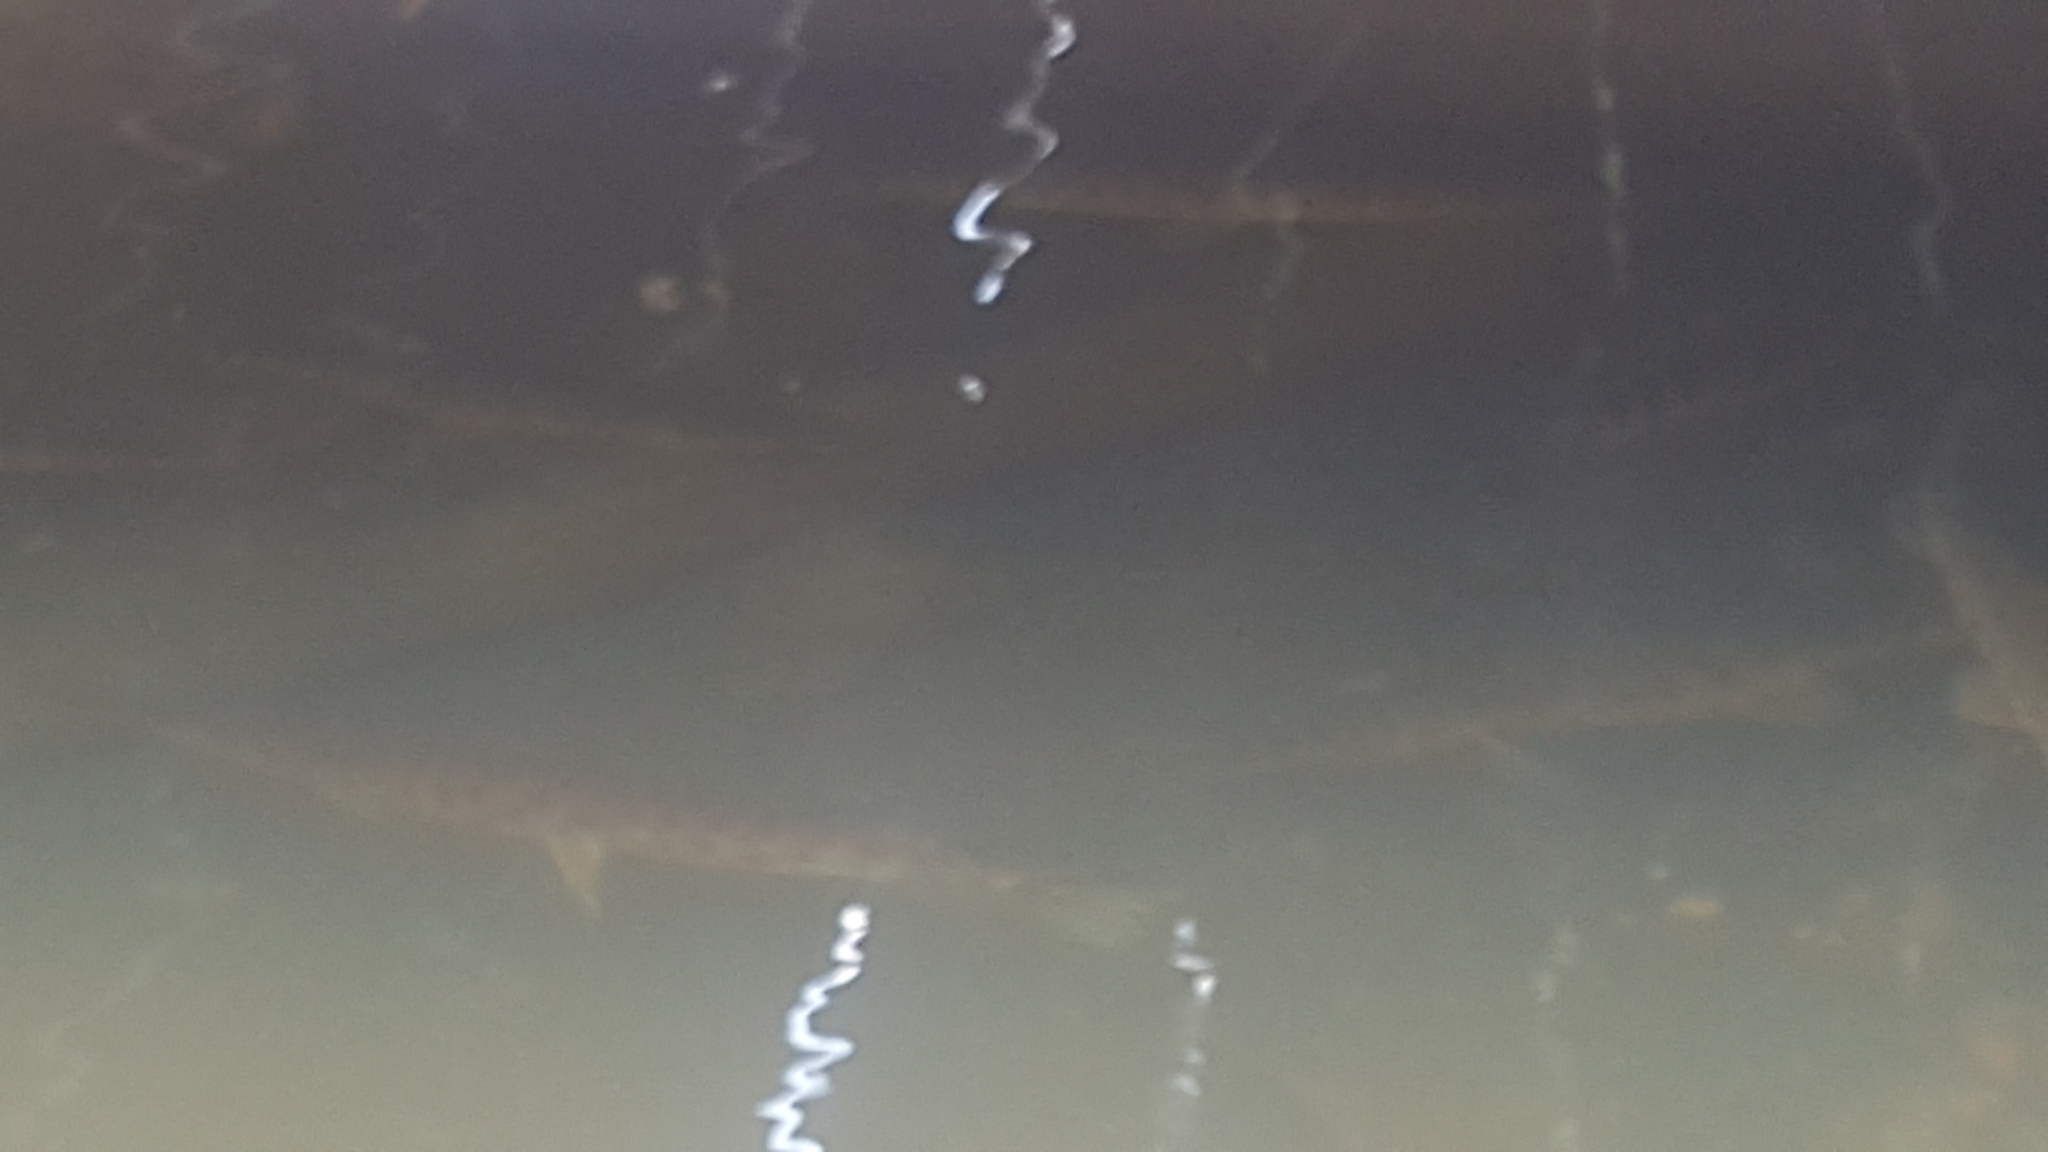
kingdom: Animalia
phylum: Chordata
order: Lepisosteiformes
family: Lepisosteidae
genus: Lepisosteus
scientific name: Lepisosteus platyrhincus
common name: Florida gar
